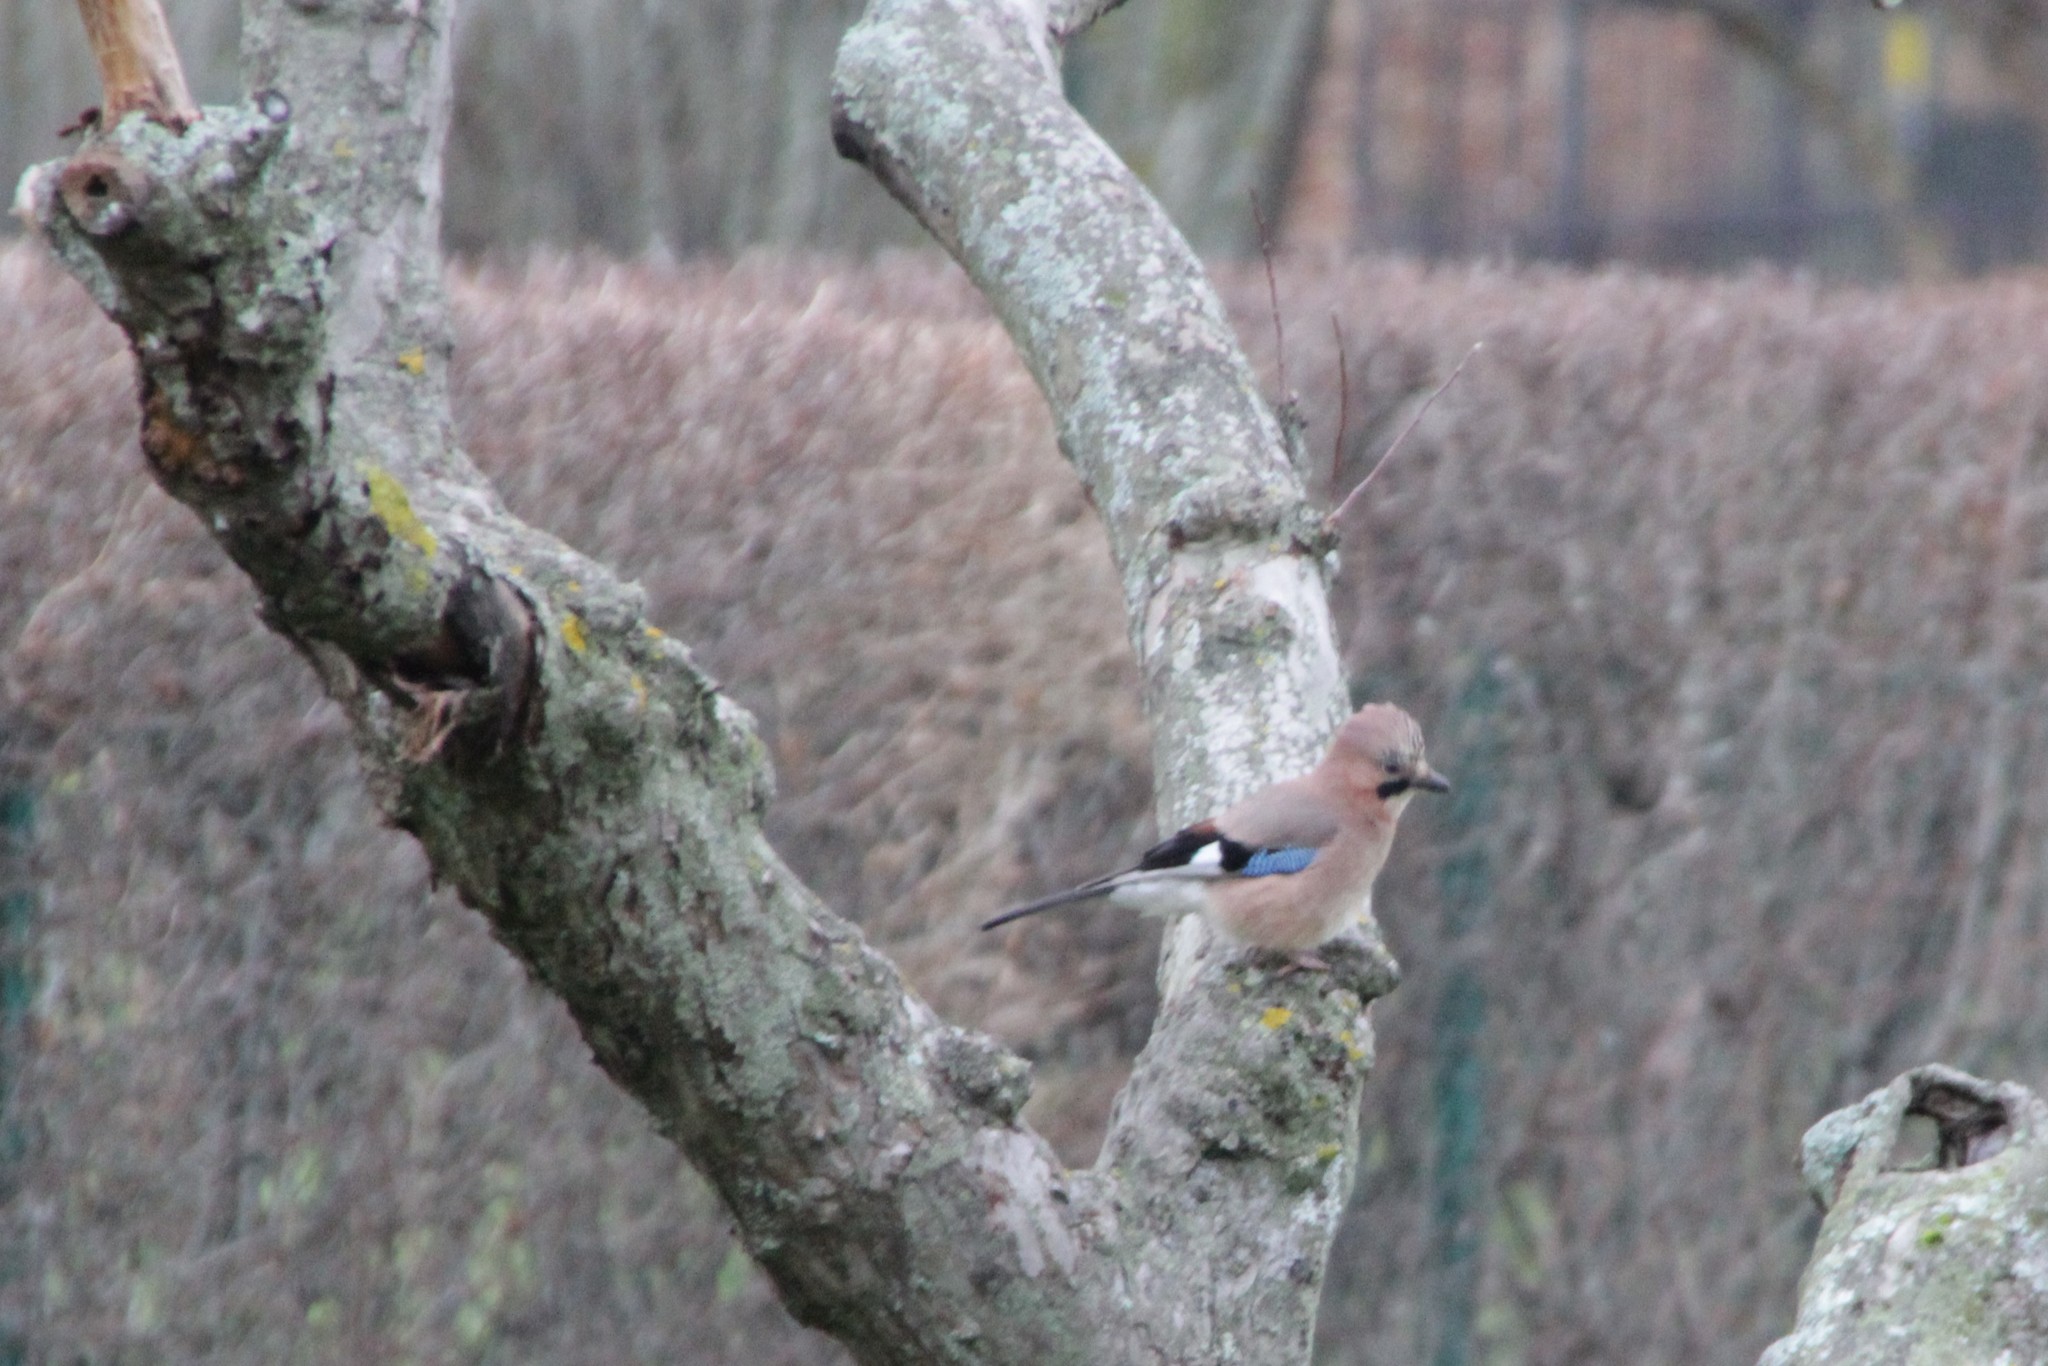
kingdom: Animalia
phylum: Chordata
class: Aves
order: Passeriformes
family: Corvidae
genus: Garrulus
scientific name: Garrulus glandarius
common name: Eurasian jay
